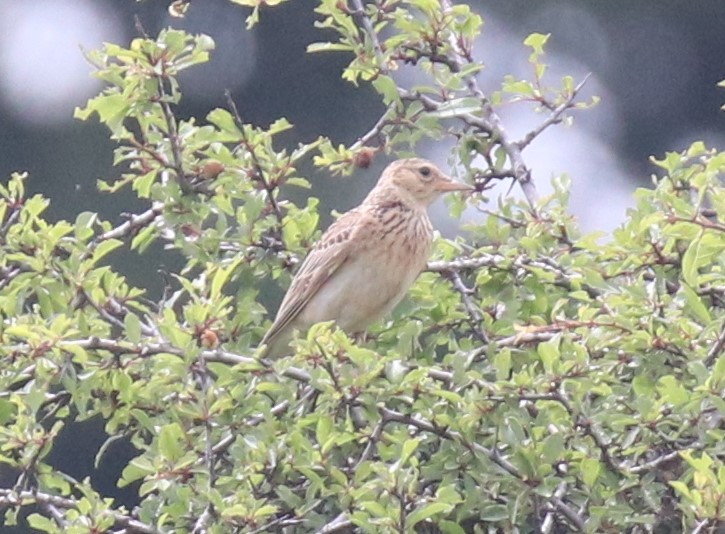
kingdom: Animalia
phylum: Chordata
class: Aves
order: Passeriformes
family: Alaudidae
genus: Alauda
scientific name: Alauda arvensis
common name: Eurasian skylark
